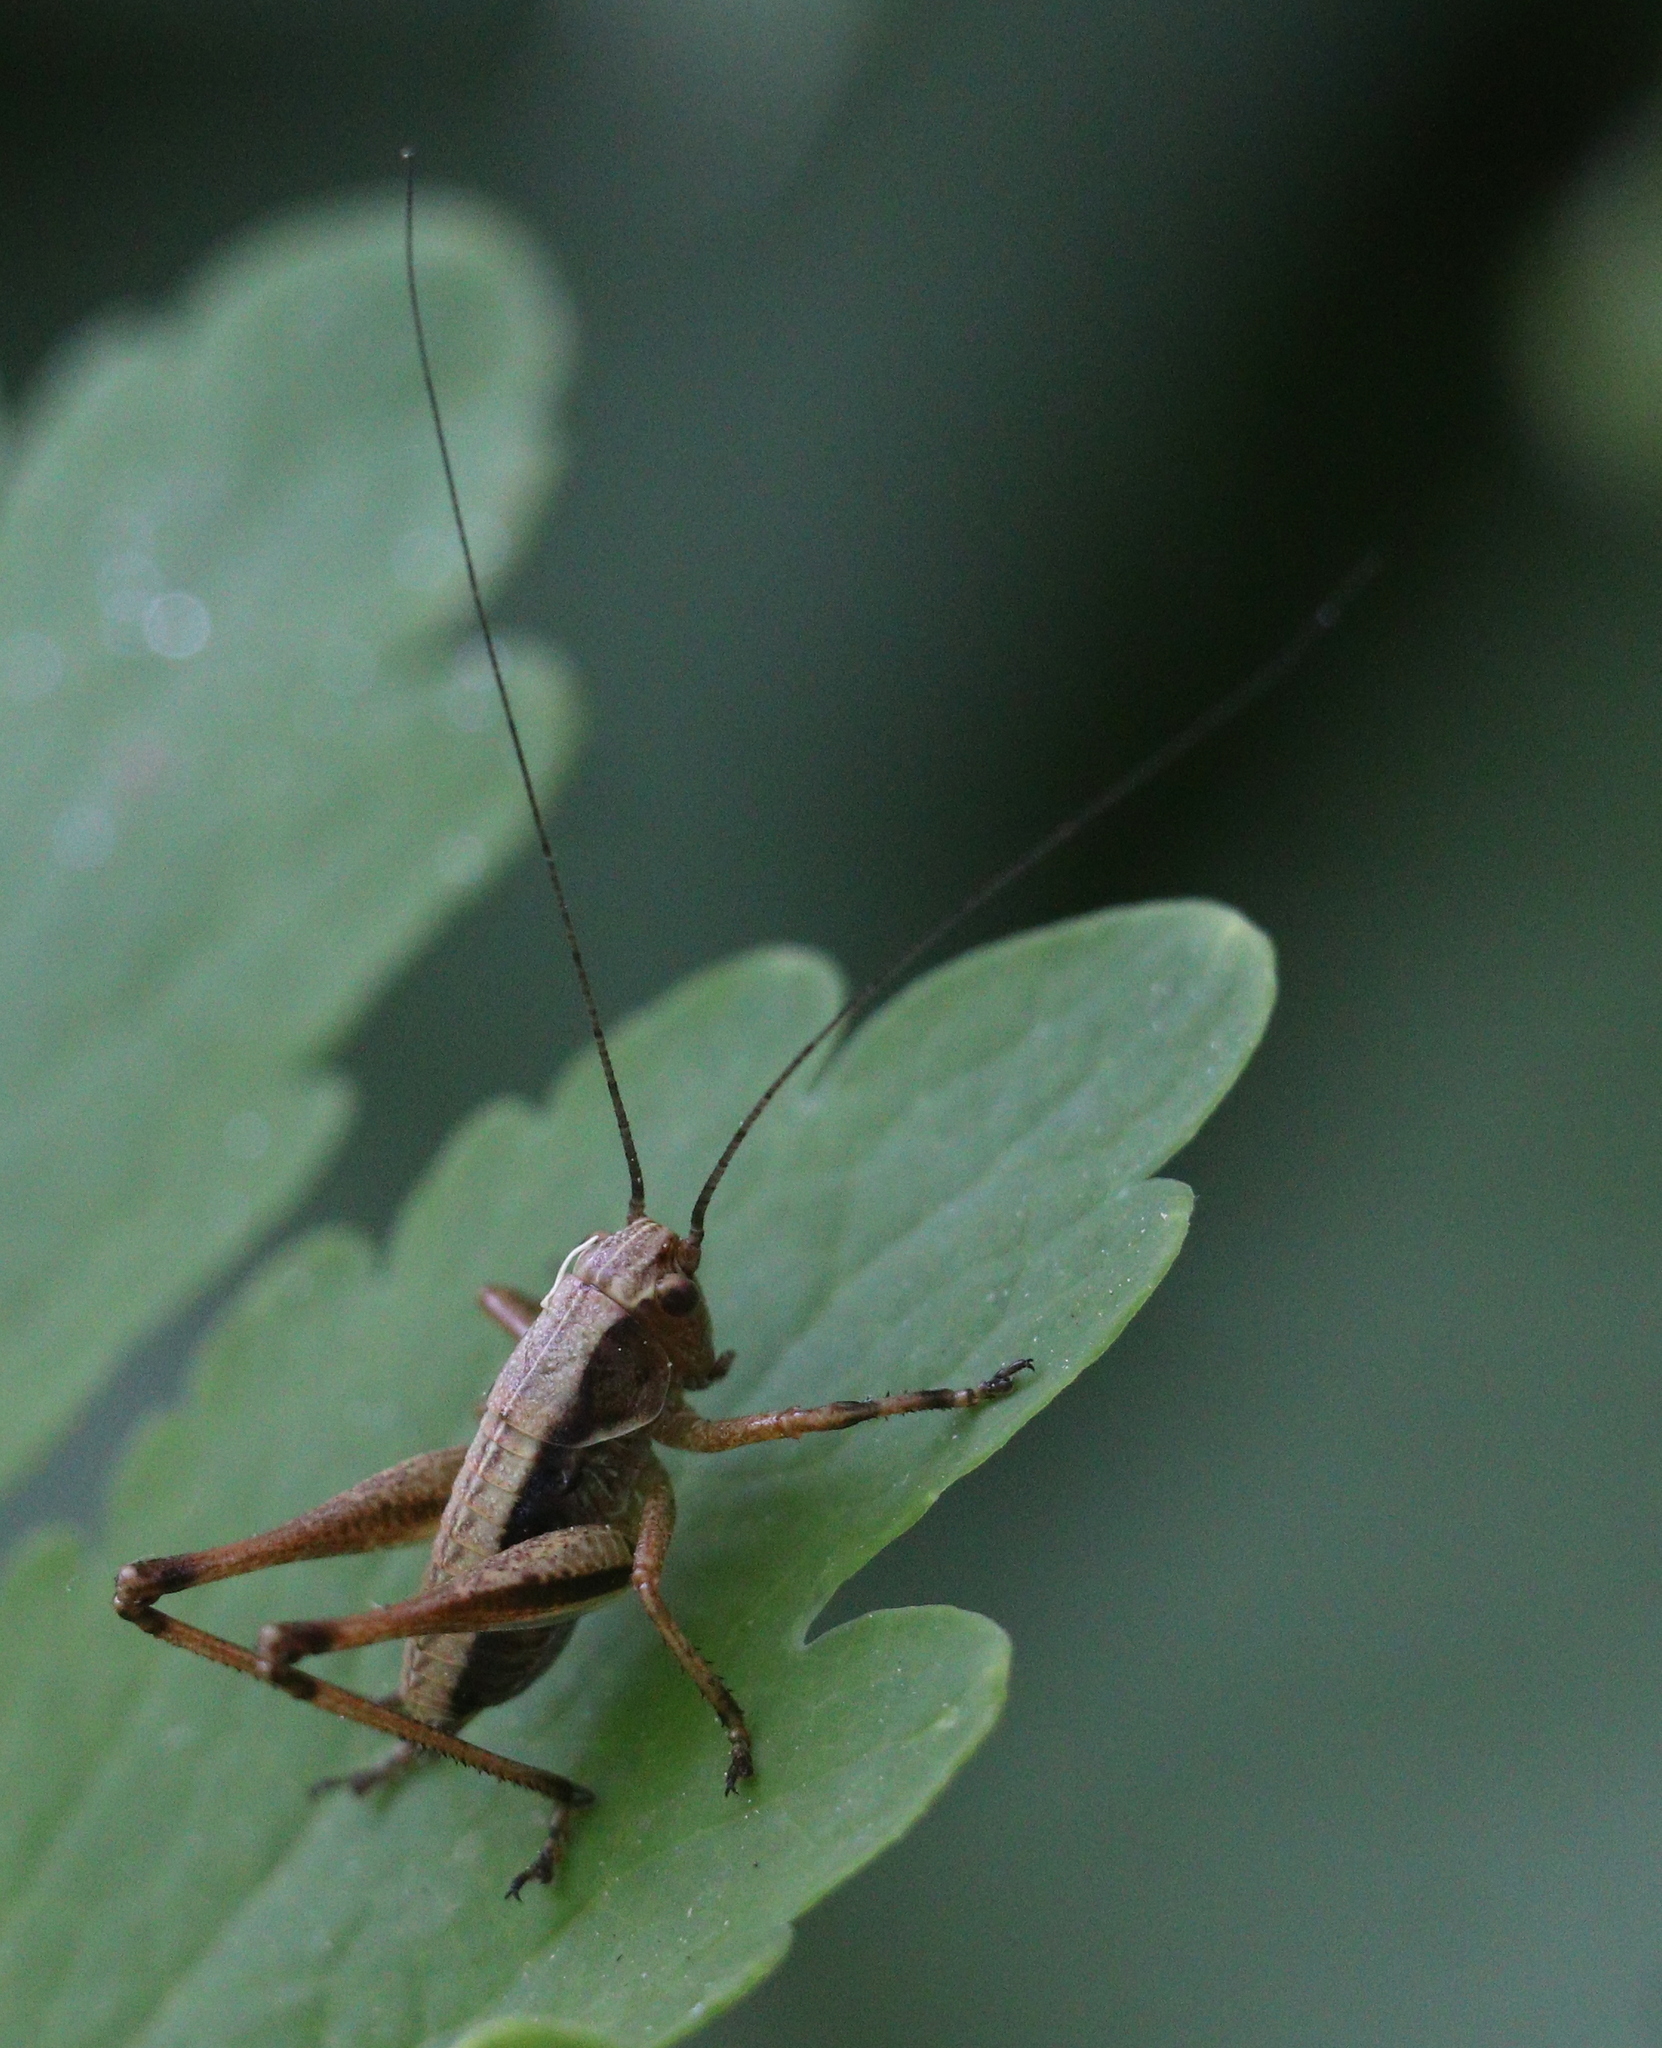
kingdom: Animalia
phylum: Arthropoda
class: Insecta
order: Orthoptera
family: Tettigoniidae
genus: Pholidoptera
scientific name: Pholidoptera griseoaptera
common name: Dark bush-cricket
